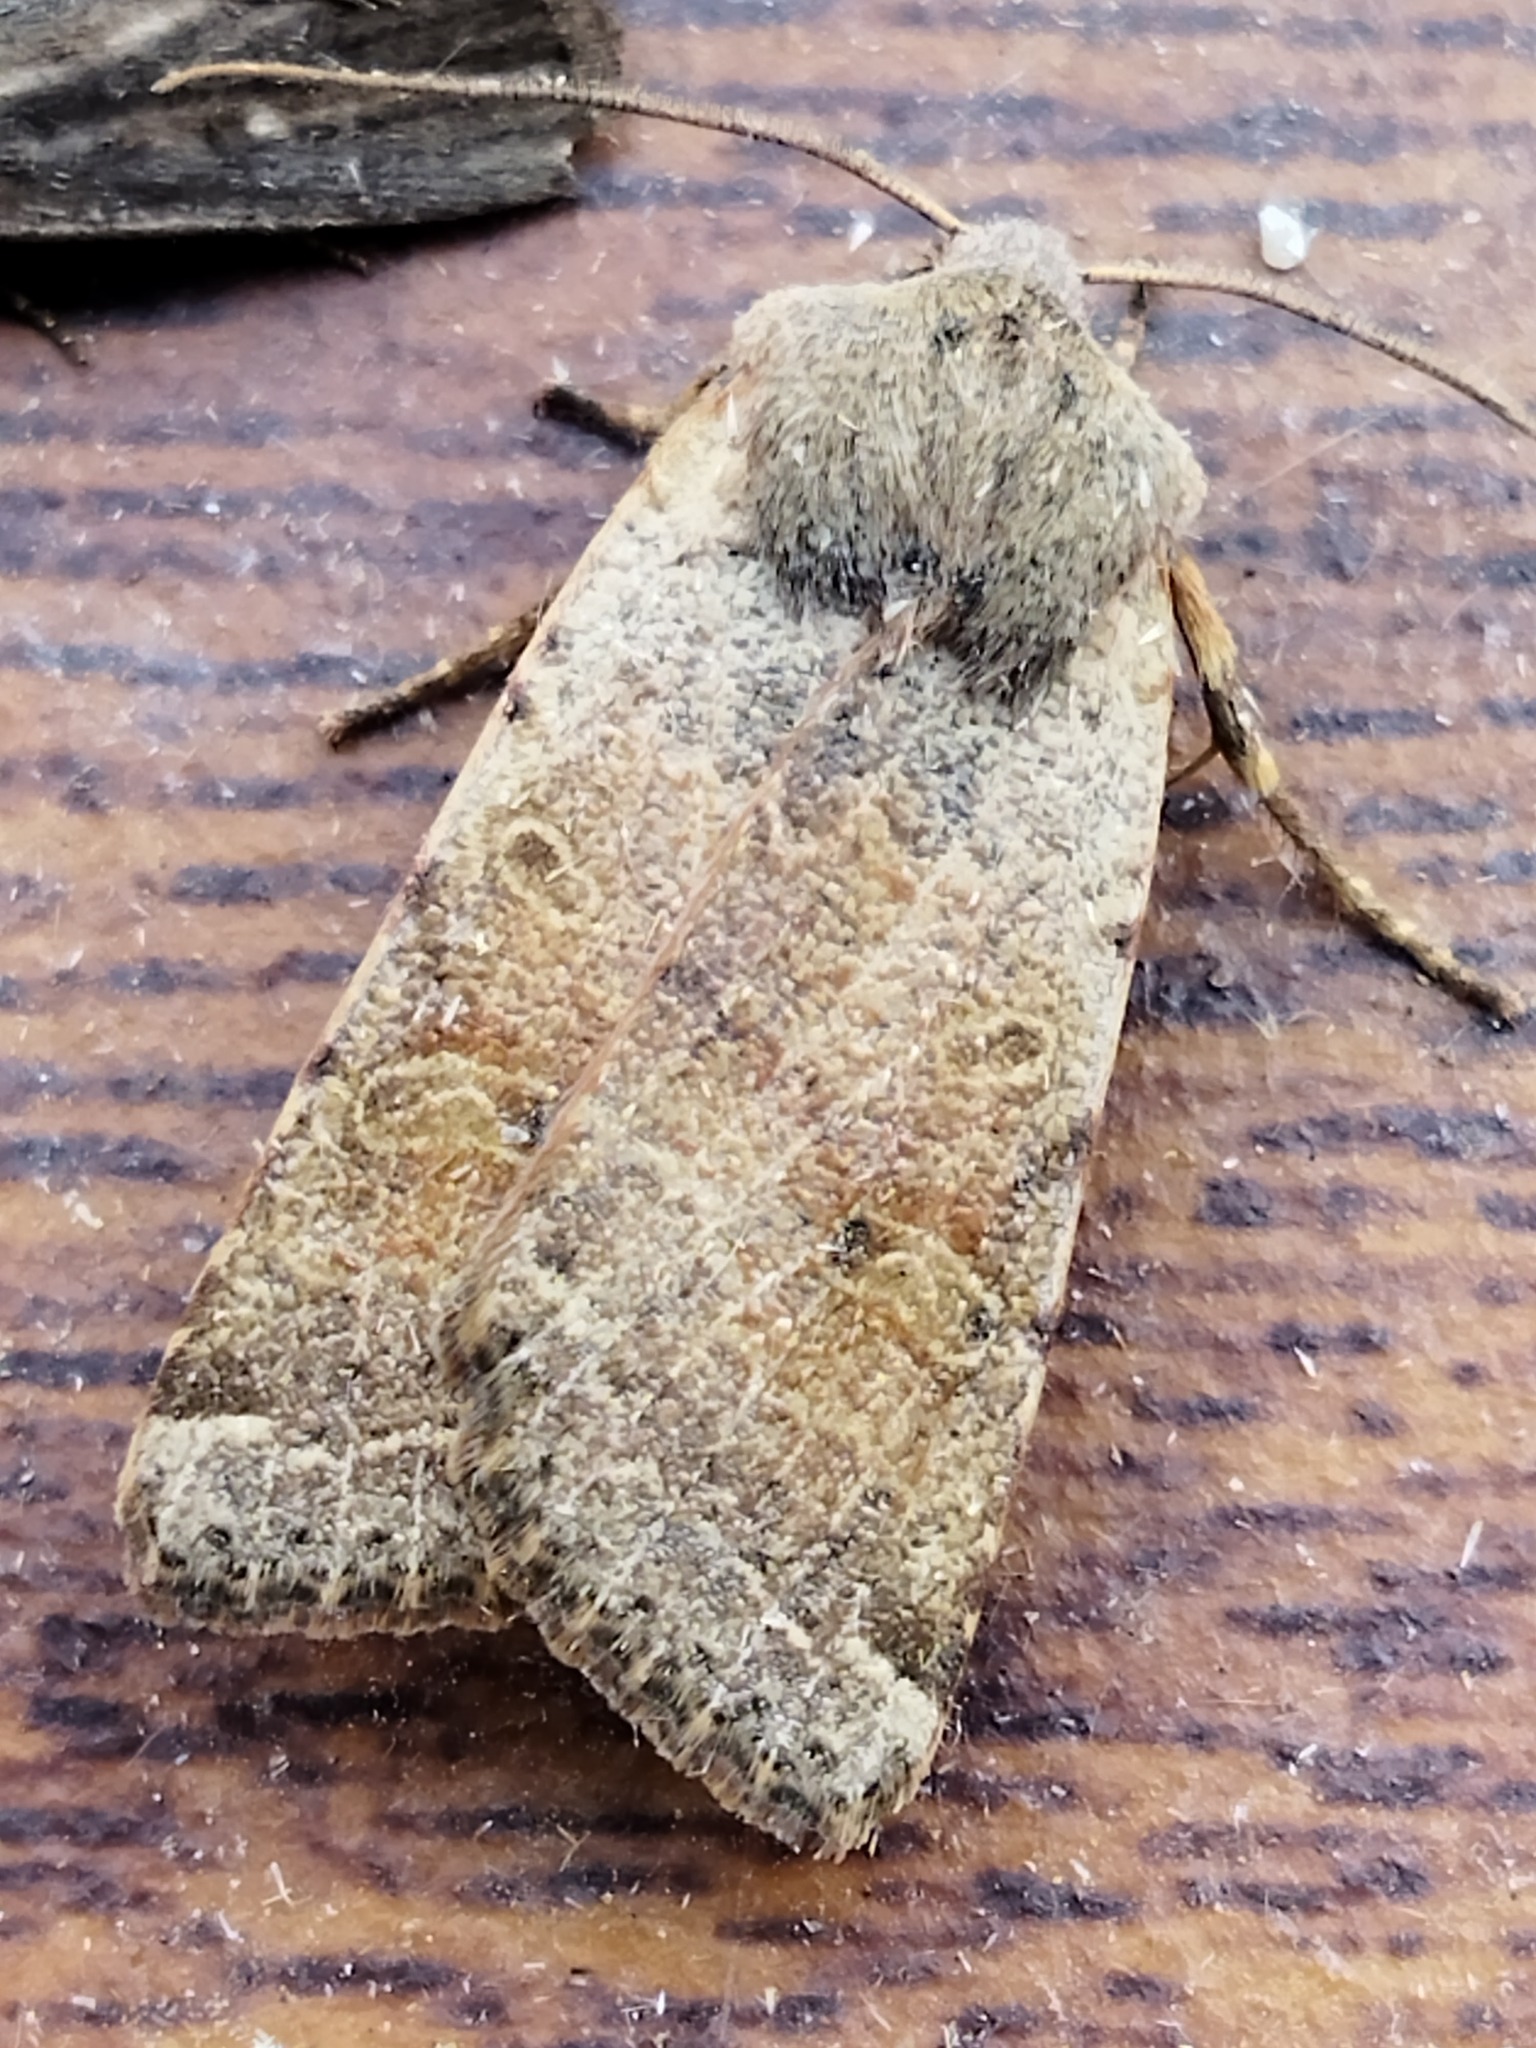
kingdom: Animalia
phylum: Arthropoda
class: Insecta
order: Lepidoptera
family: Noctuidae
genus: Agrochola
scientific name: Agrochola lychnidis
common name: Beaded chestnut
